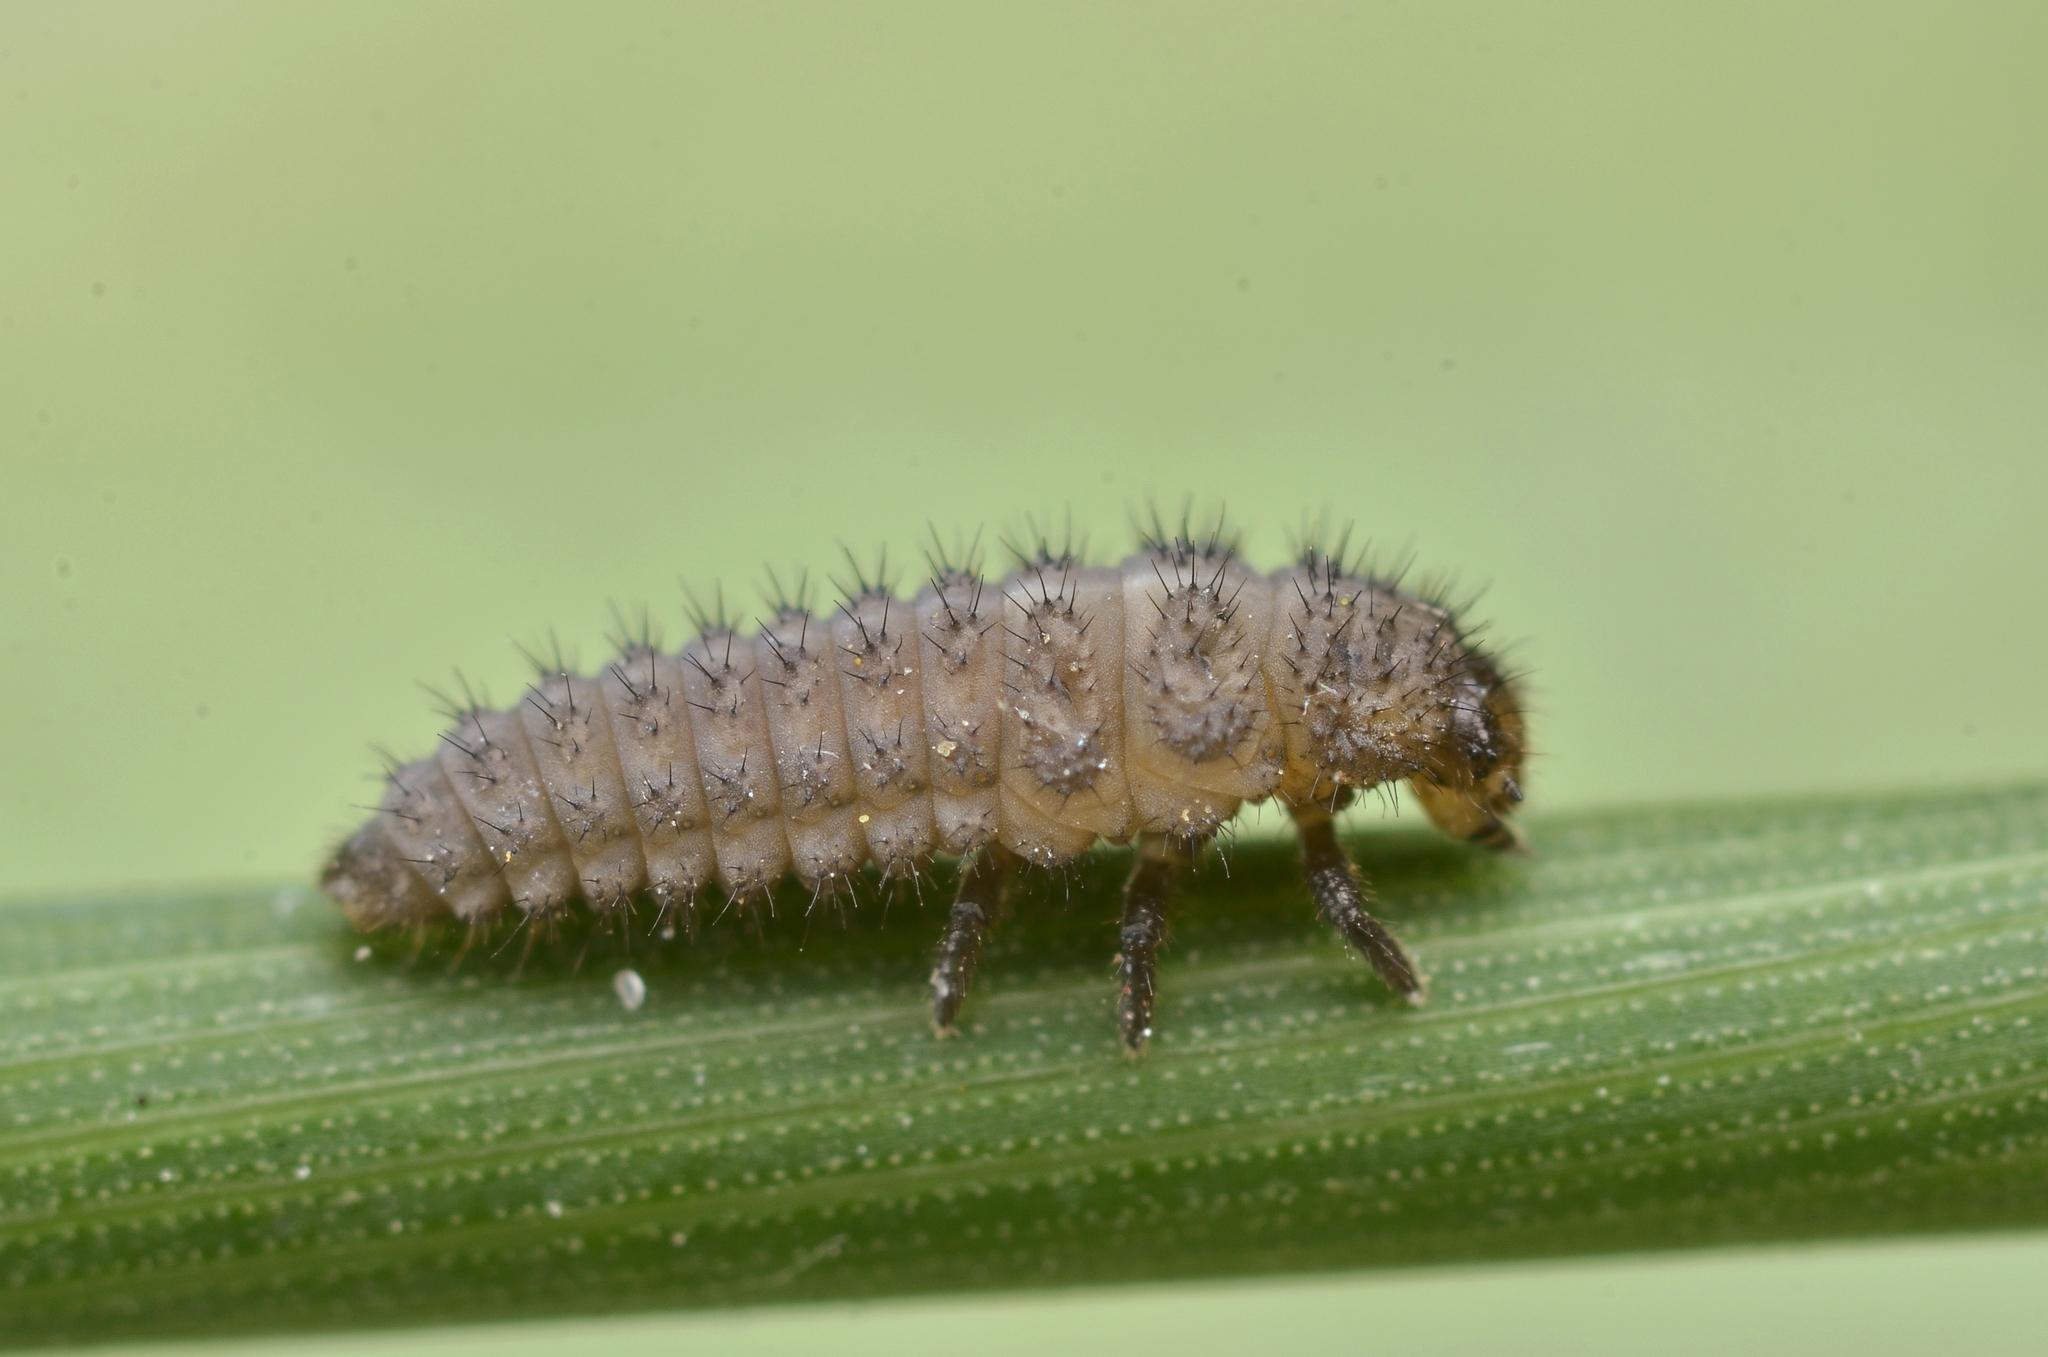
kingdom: Animalia
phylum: Arthropoda
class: Insecta
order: Coleoptera
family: Coccinellidae
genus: Tytthaspis
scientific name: Tytthaspis sedecimpunctata
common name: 16-spot ladybird
